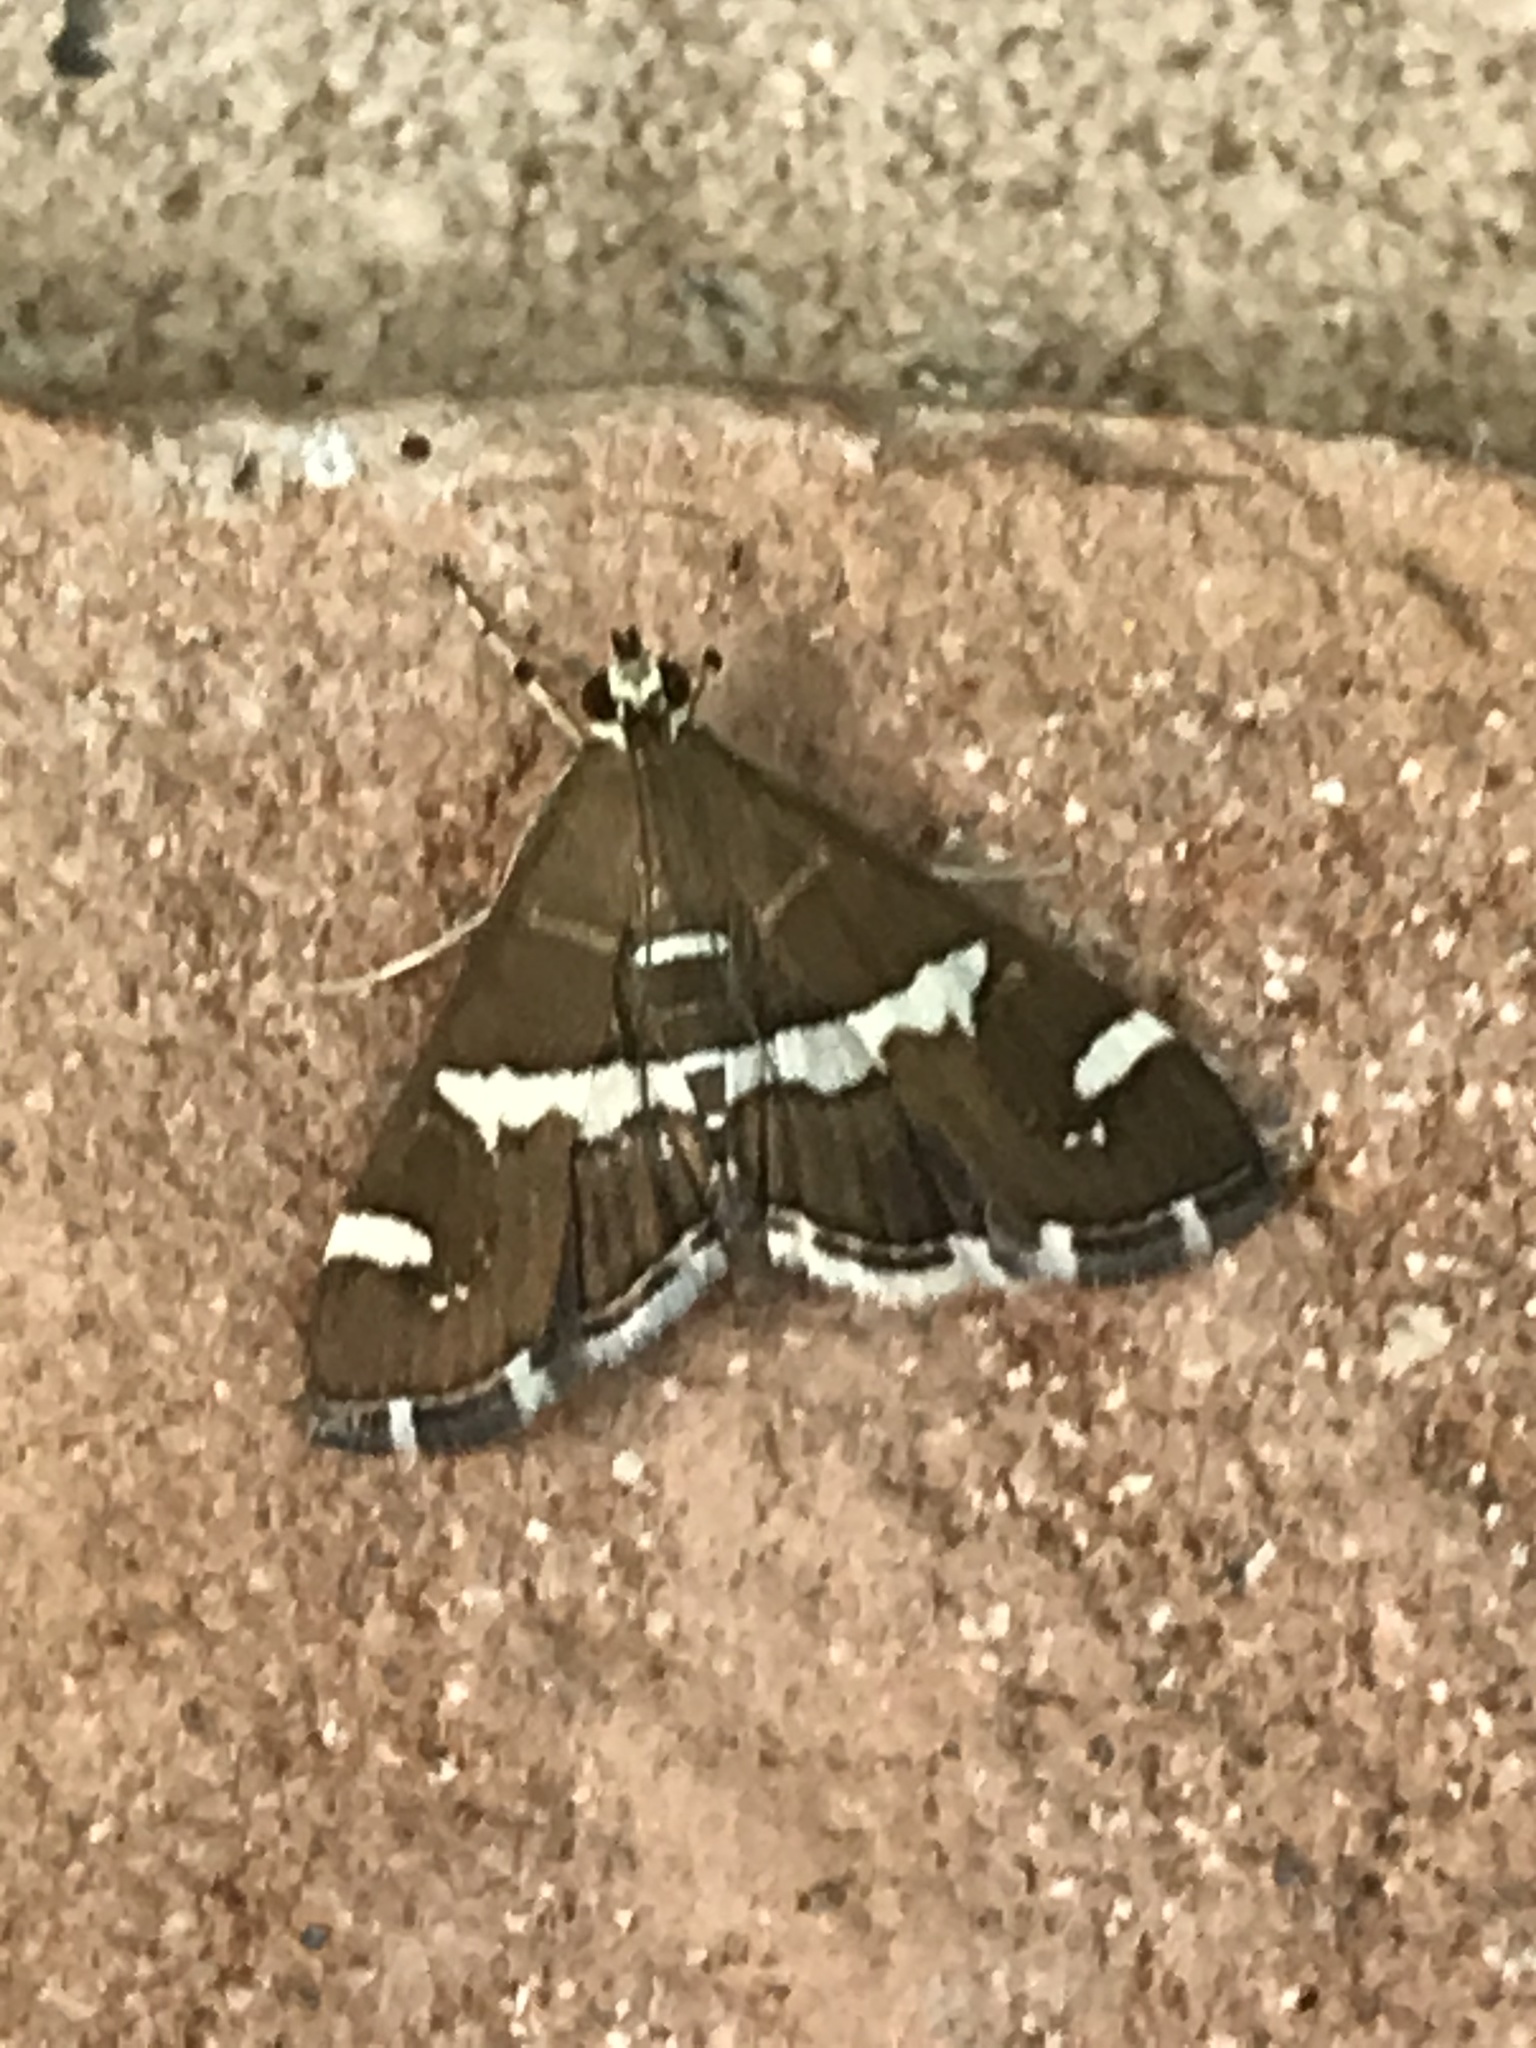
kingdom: Animalia
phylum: Arthropoda
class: Insecta
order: Lepidoptera
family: Crambidae
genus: Spoladea
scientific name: Spoladea recurvalis
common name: Beet webworm moth
